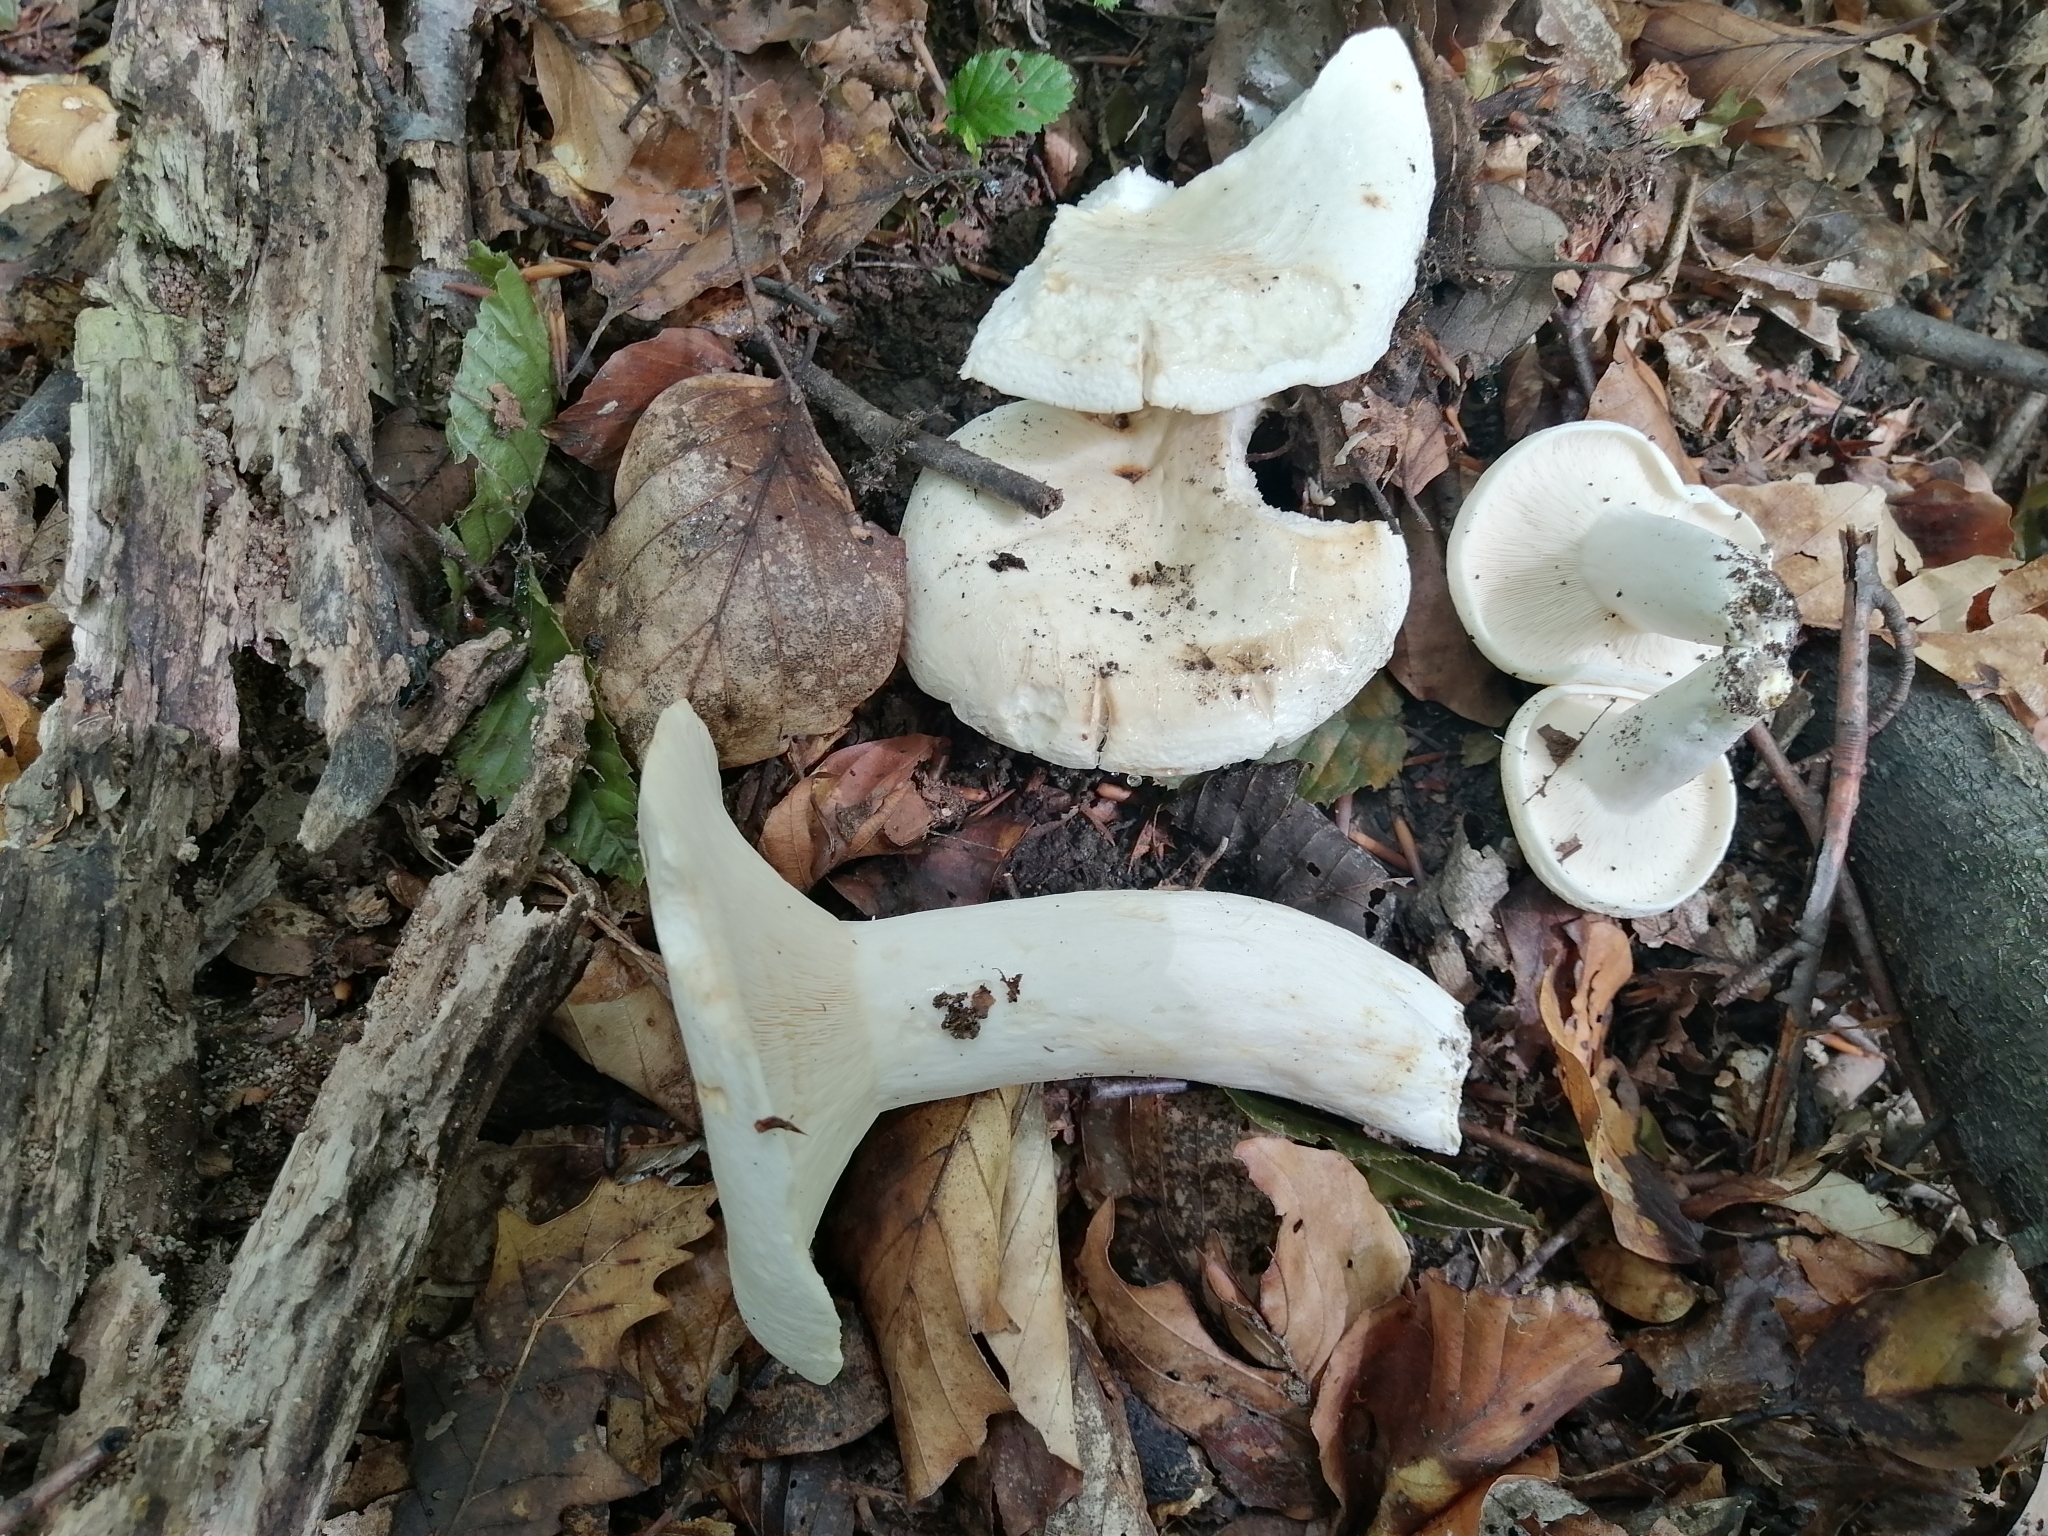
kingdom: Fungi
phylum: Basidiomycota
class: Agaricomycetes
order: Russulales
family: Russulaceae
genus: Lactifluus
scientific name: Lactifluus piperatus
